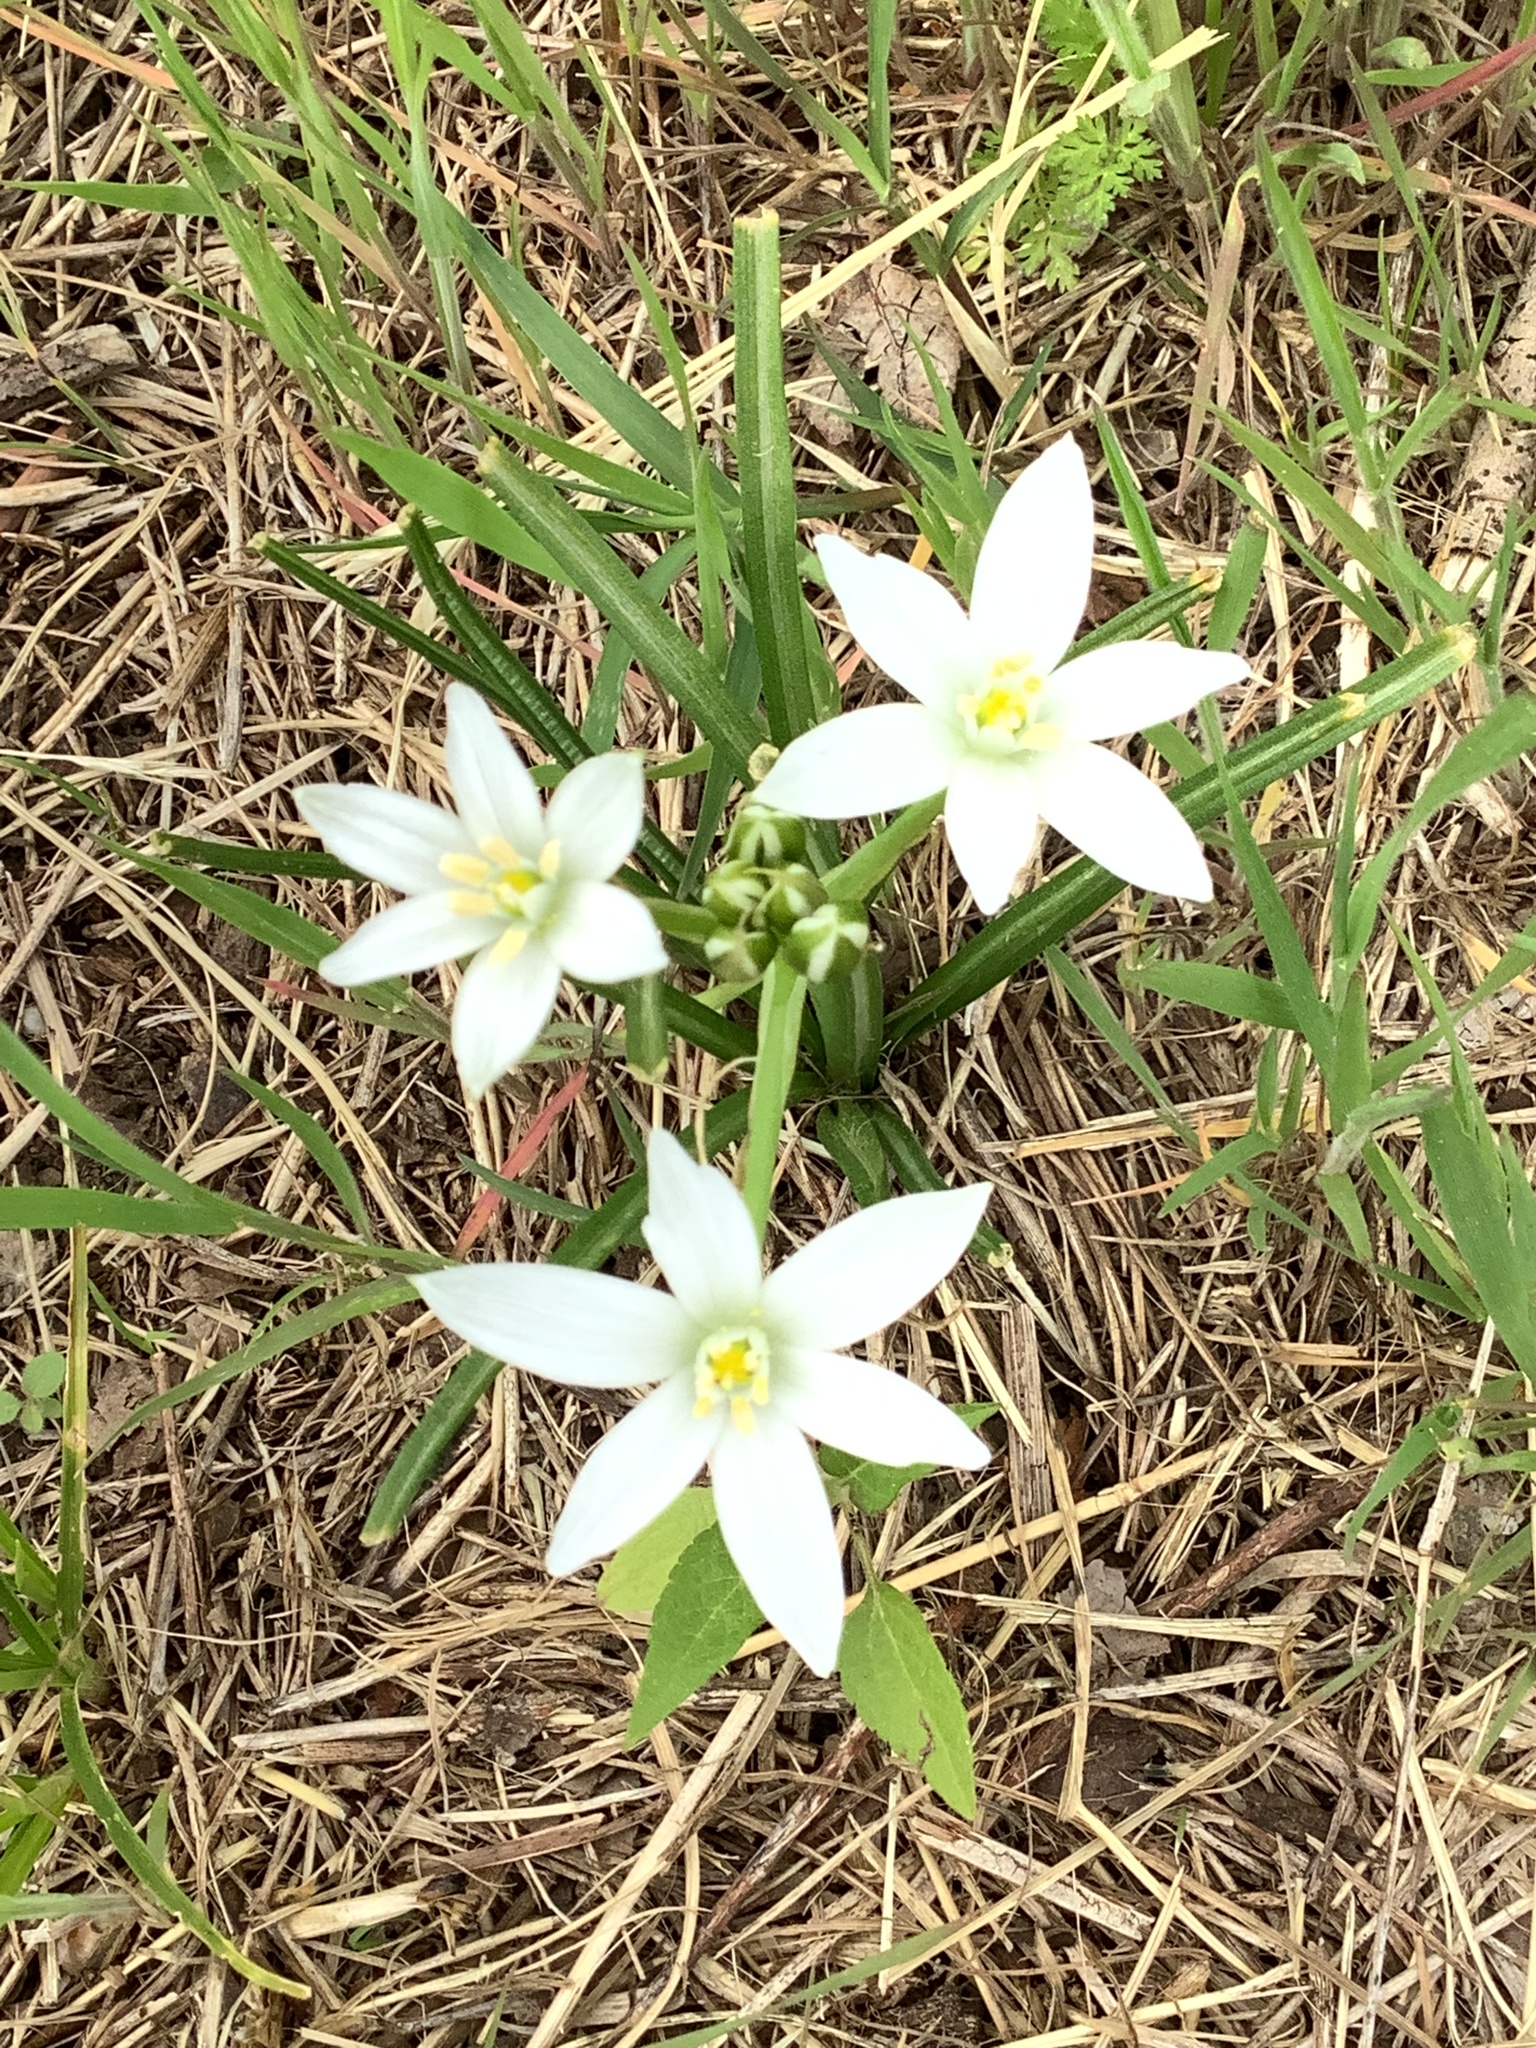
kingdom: Plantae
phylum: Tracheophyta
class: Liliopsida
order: Asparagales
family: Asparagaceae
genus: Ornithogalum
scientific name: Ornithogalum umbellatum
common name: Garden star-of-bethlehem
